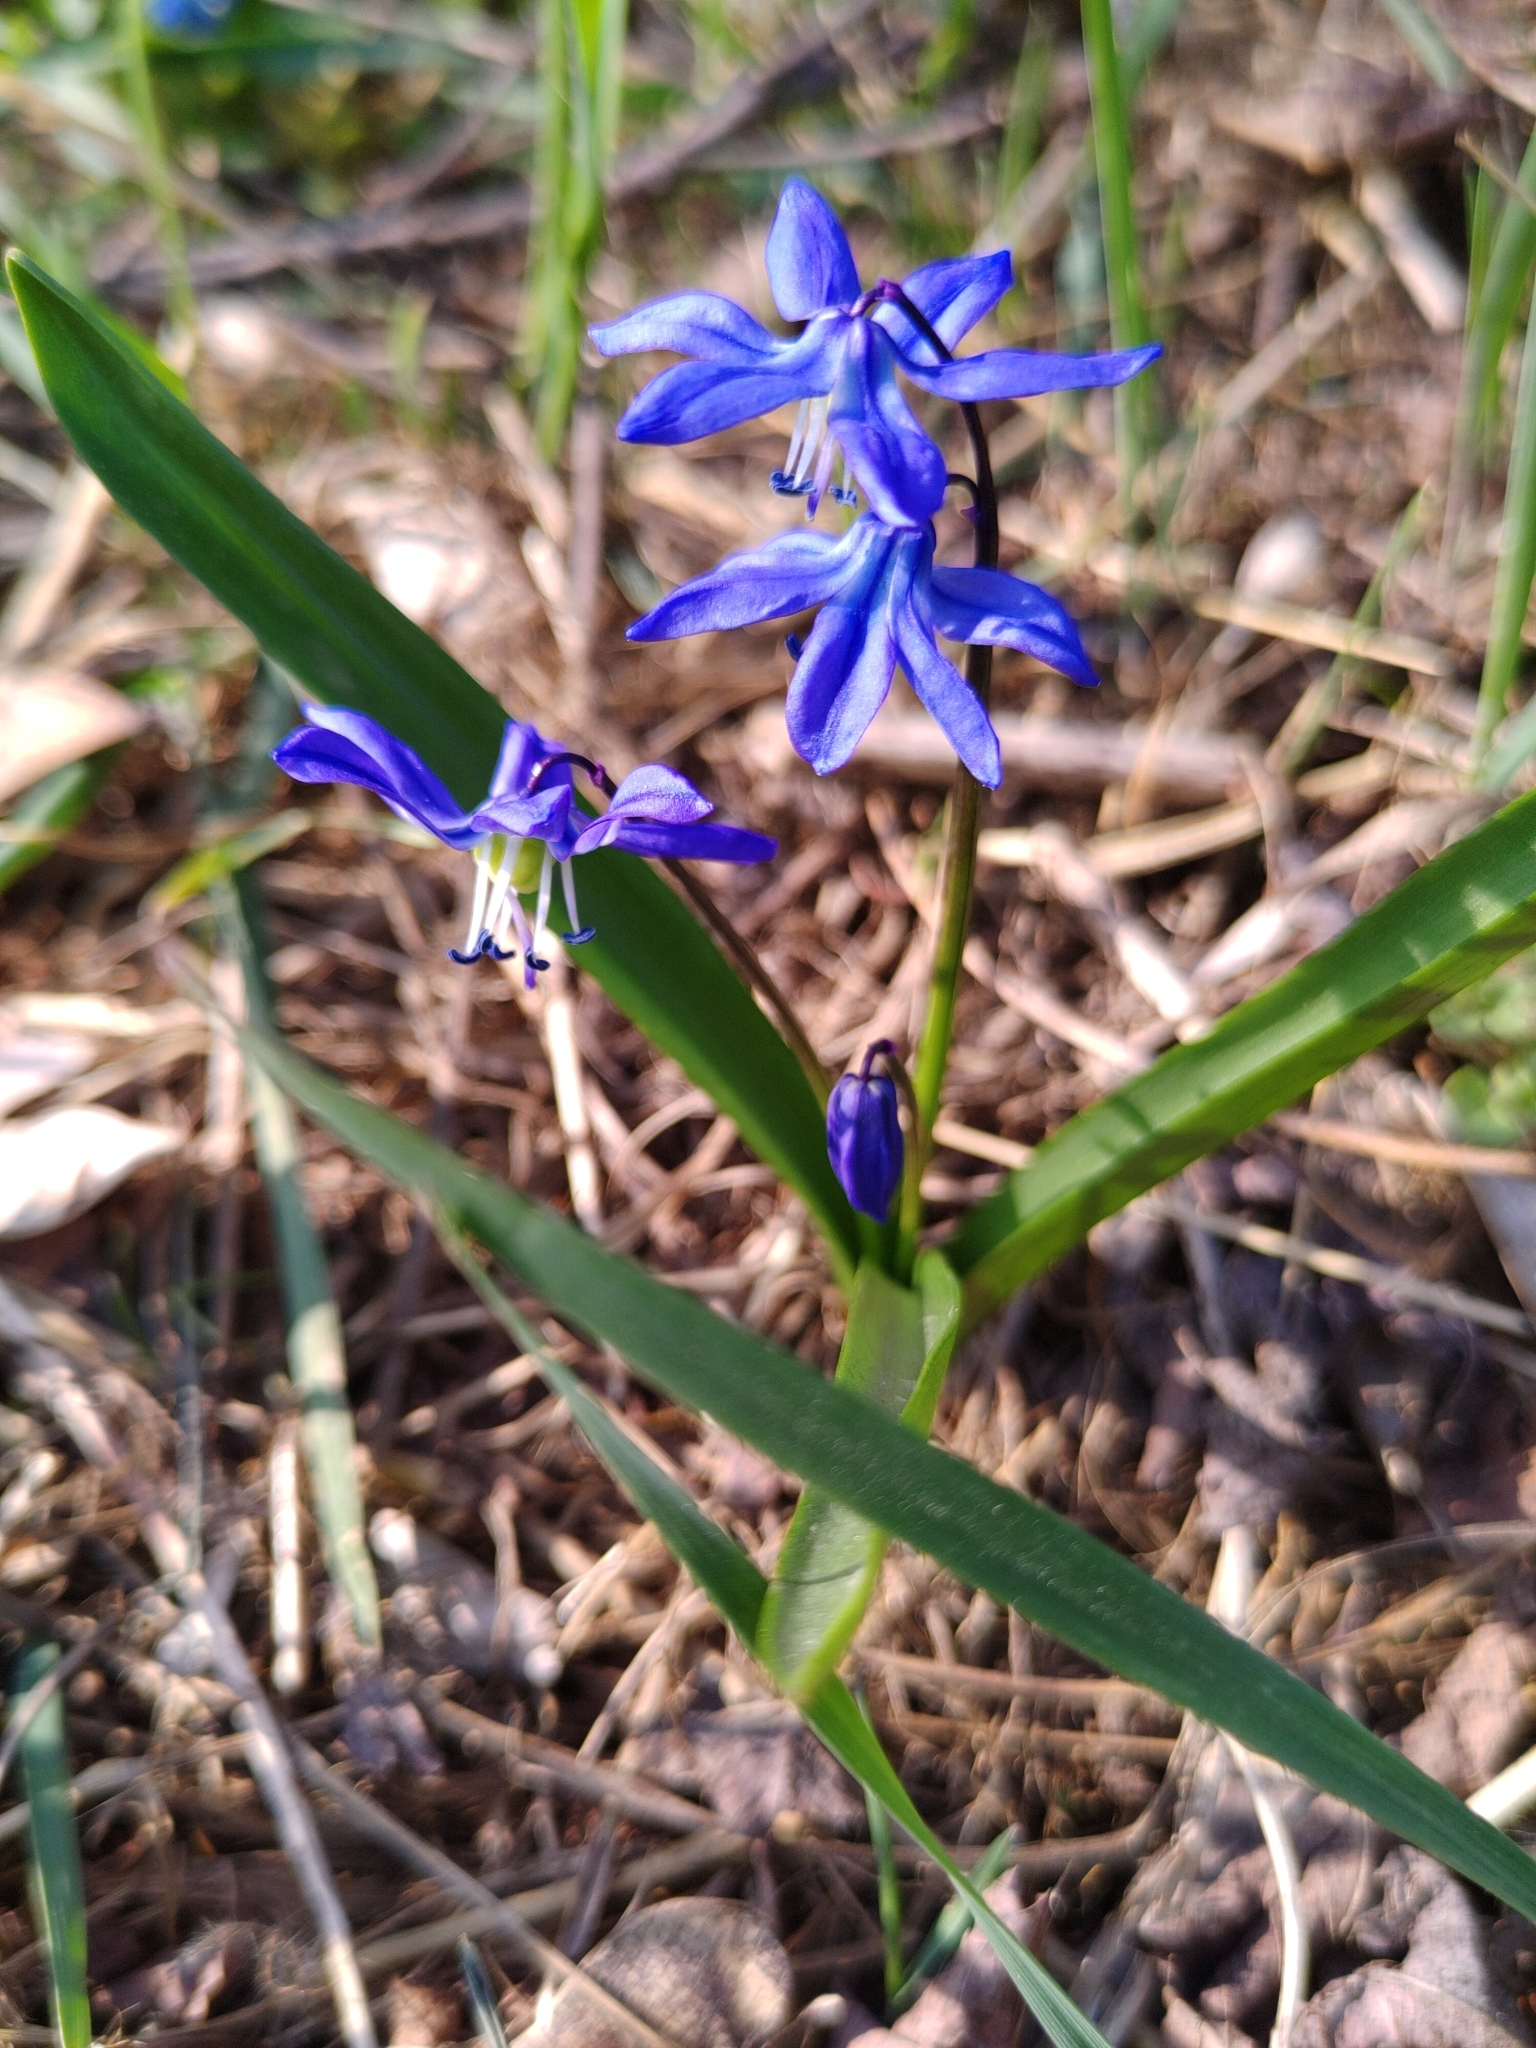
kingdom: Plantae
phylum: Tracheophyta
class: Liliopsida
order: Asparagales
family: Asparagaceae
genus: Scilla
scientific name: Scilla siberica
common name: Siberian squill
